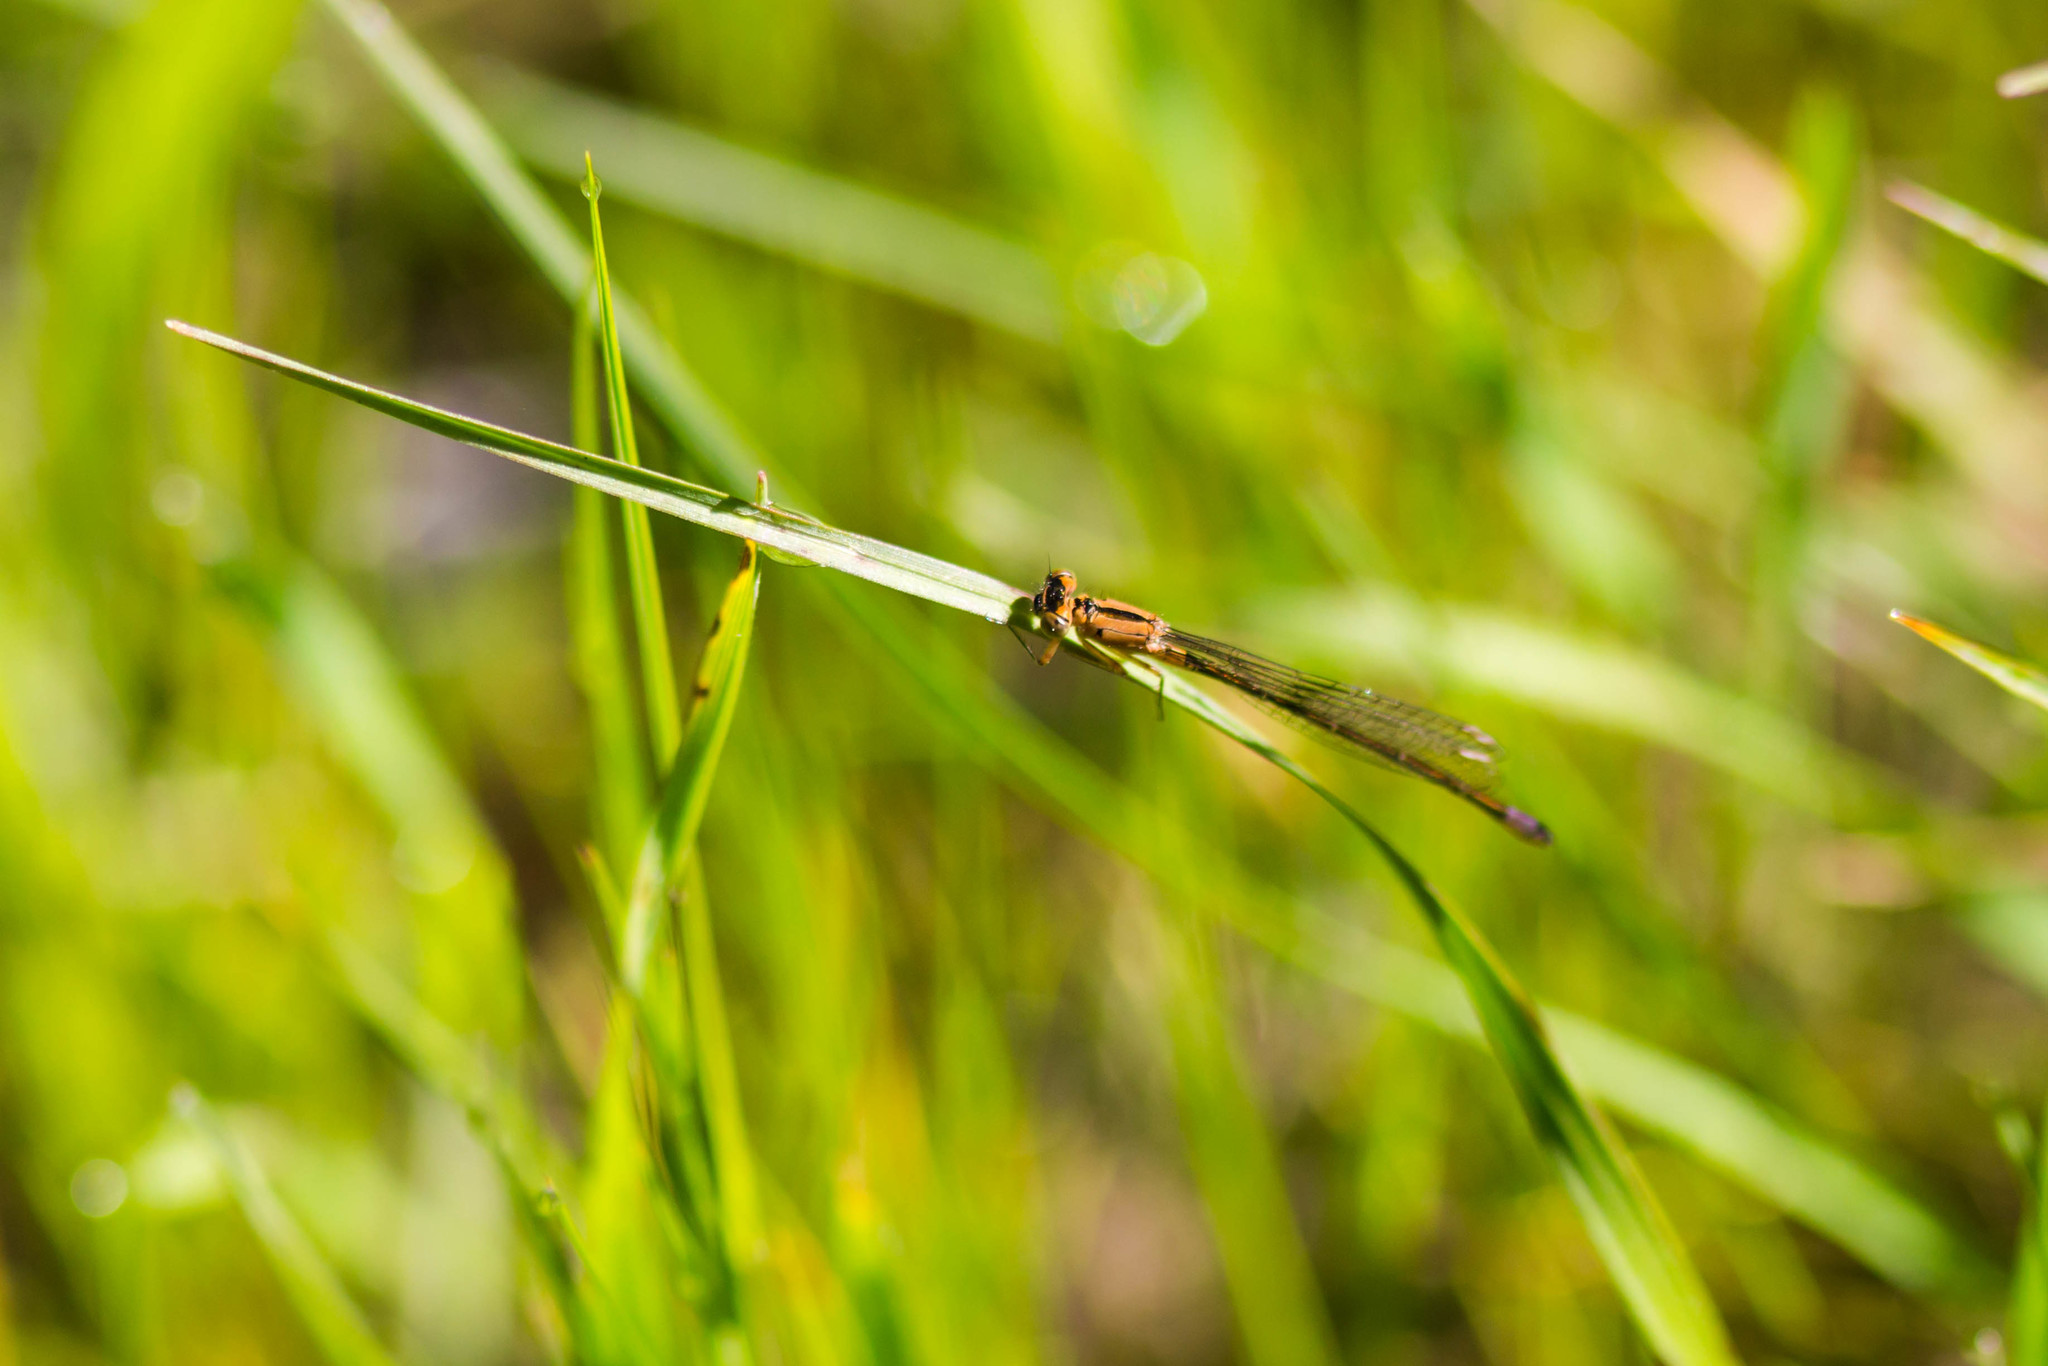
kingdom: Animalia
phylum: Arthropoda
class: Insecta
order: Odonata
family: Coenagrionidae
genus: Ischnura
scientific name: Ischnura cervula
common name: Pacific forktail
